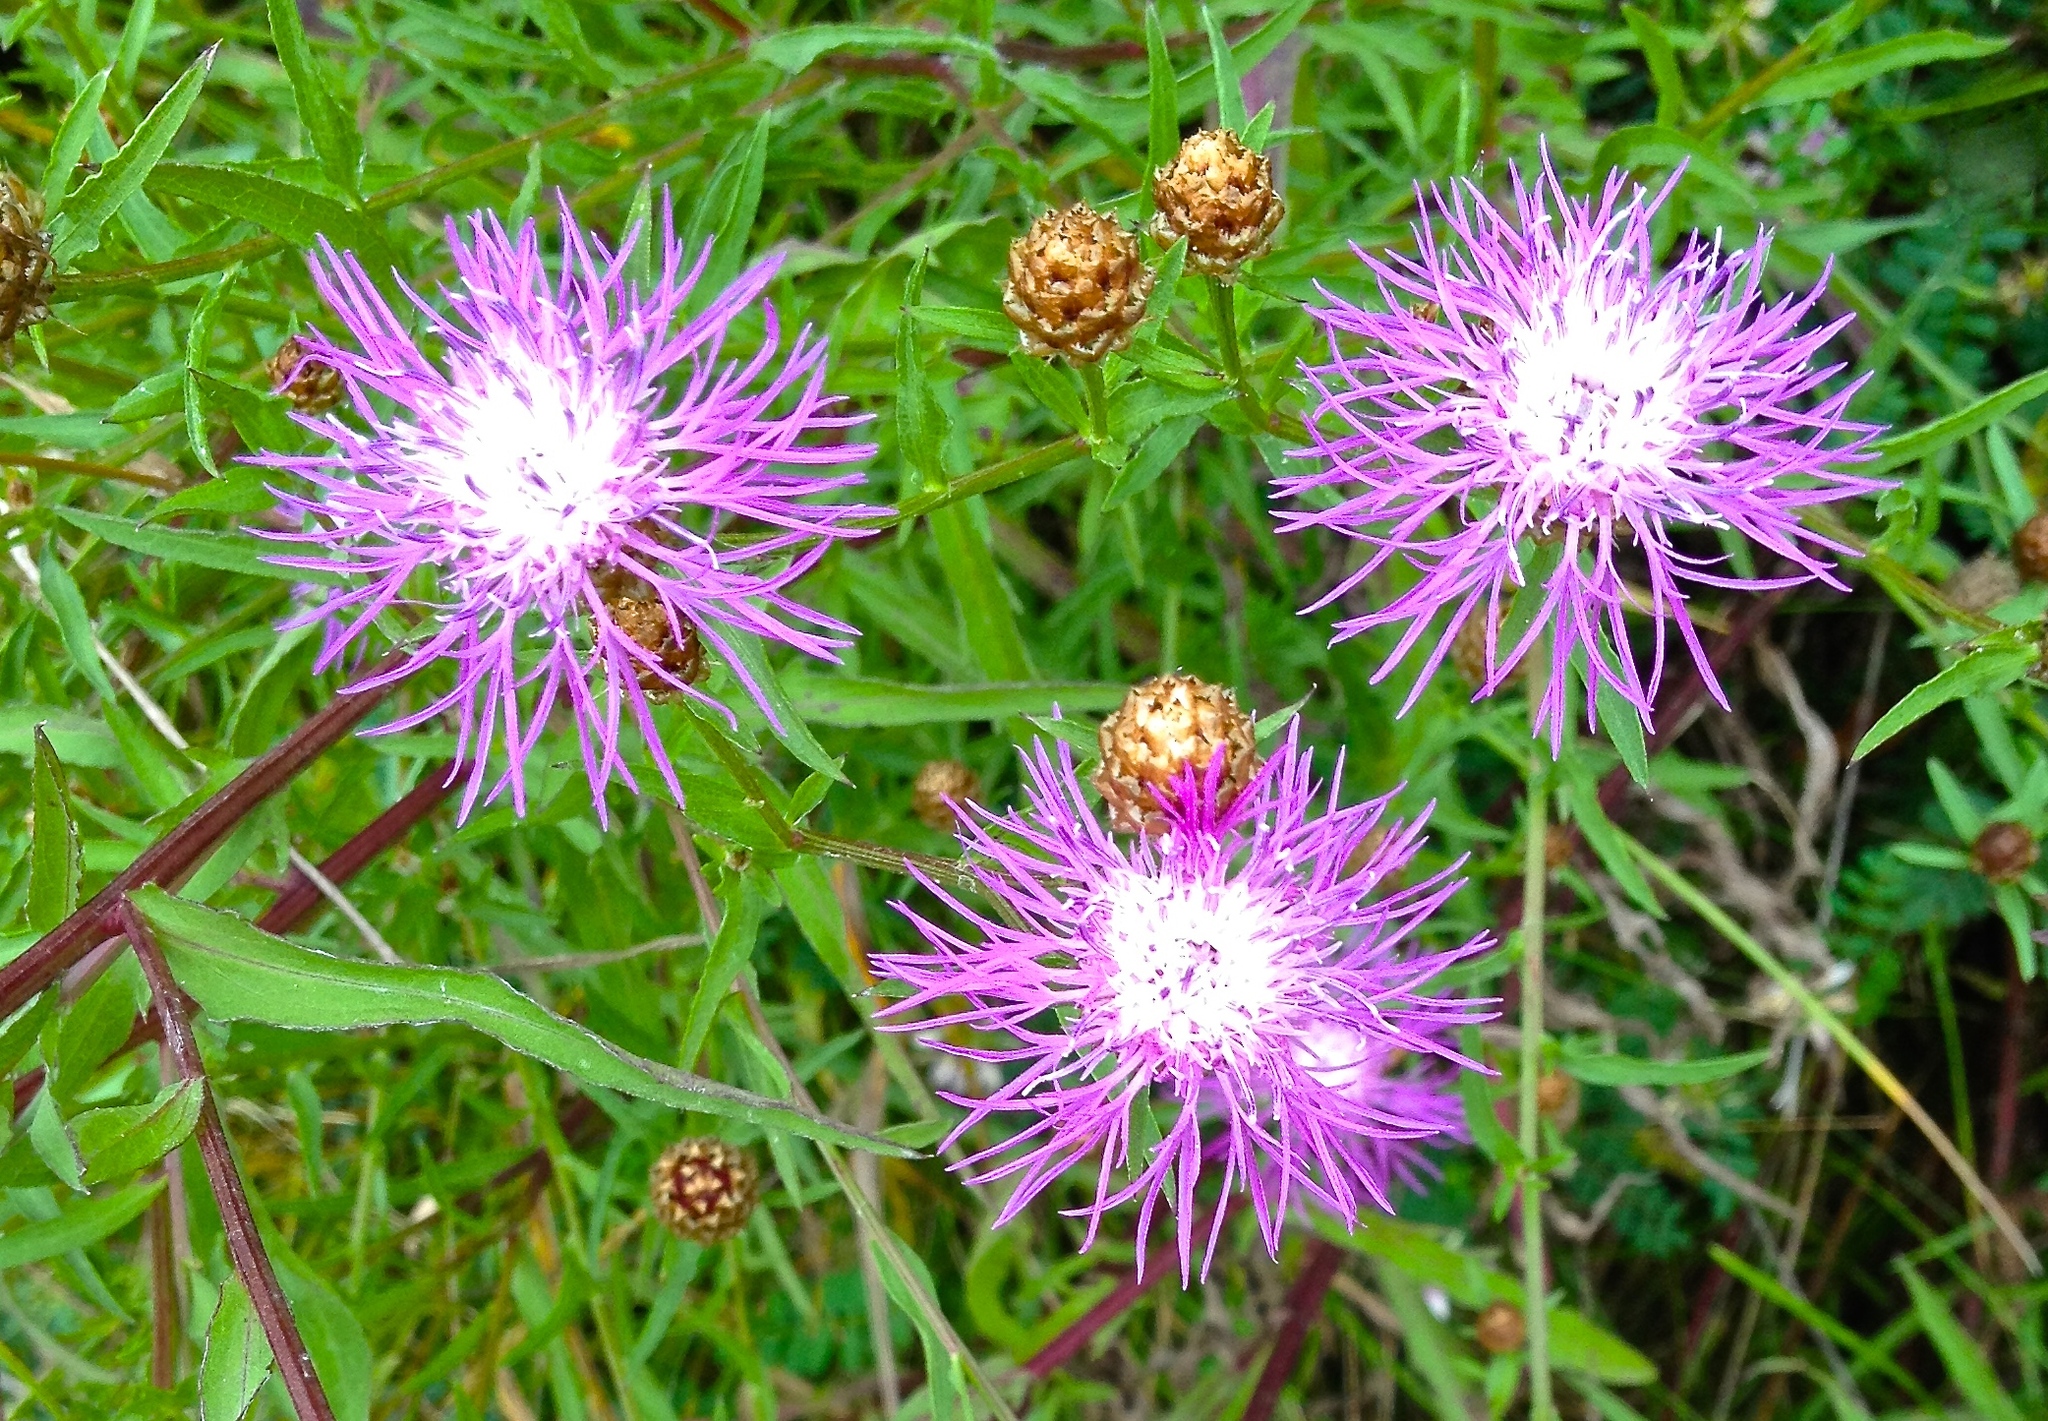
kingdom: Plantae
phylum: Tracheophyta
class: Magnoliopsida
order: Asterales
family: Asteraceae
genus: Centaurea
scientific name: Centaurea jacea
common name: Brown knapweed
